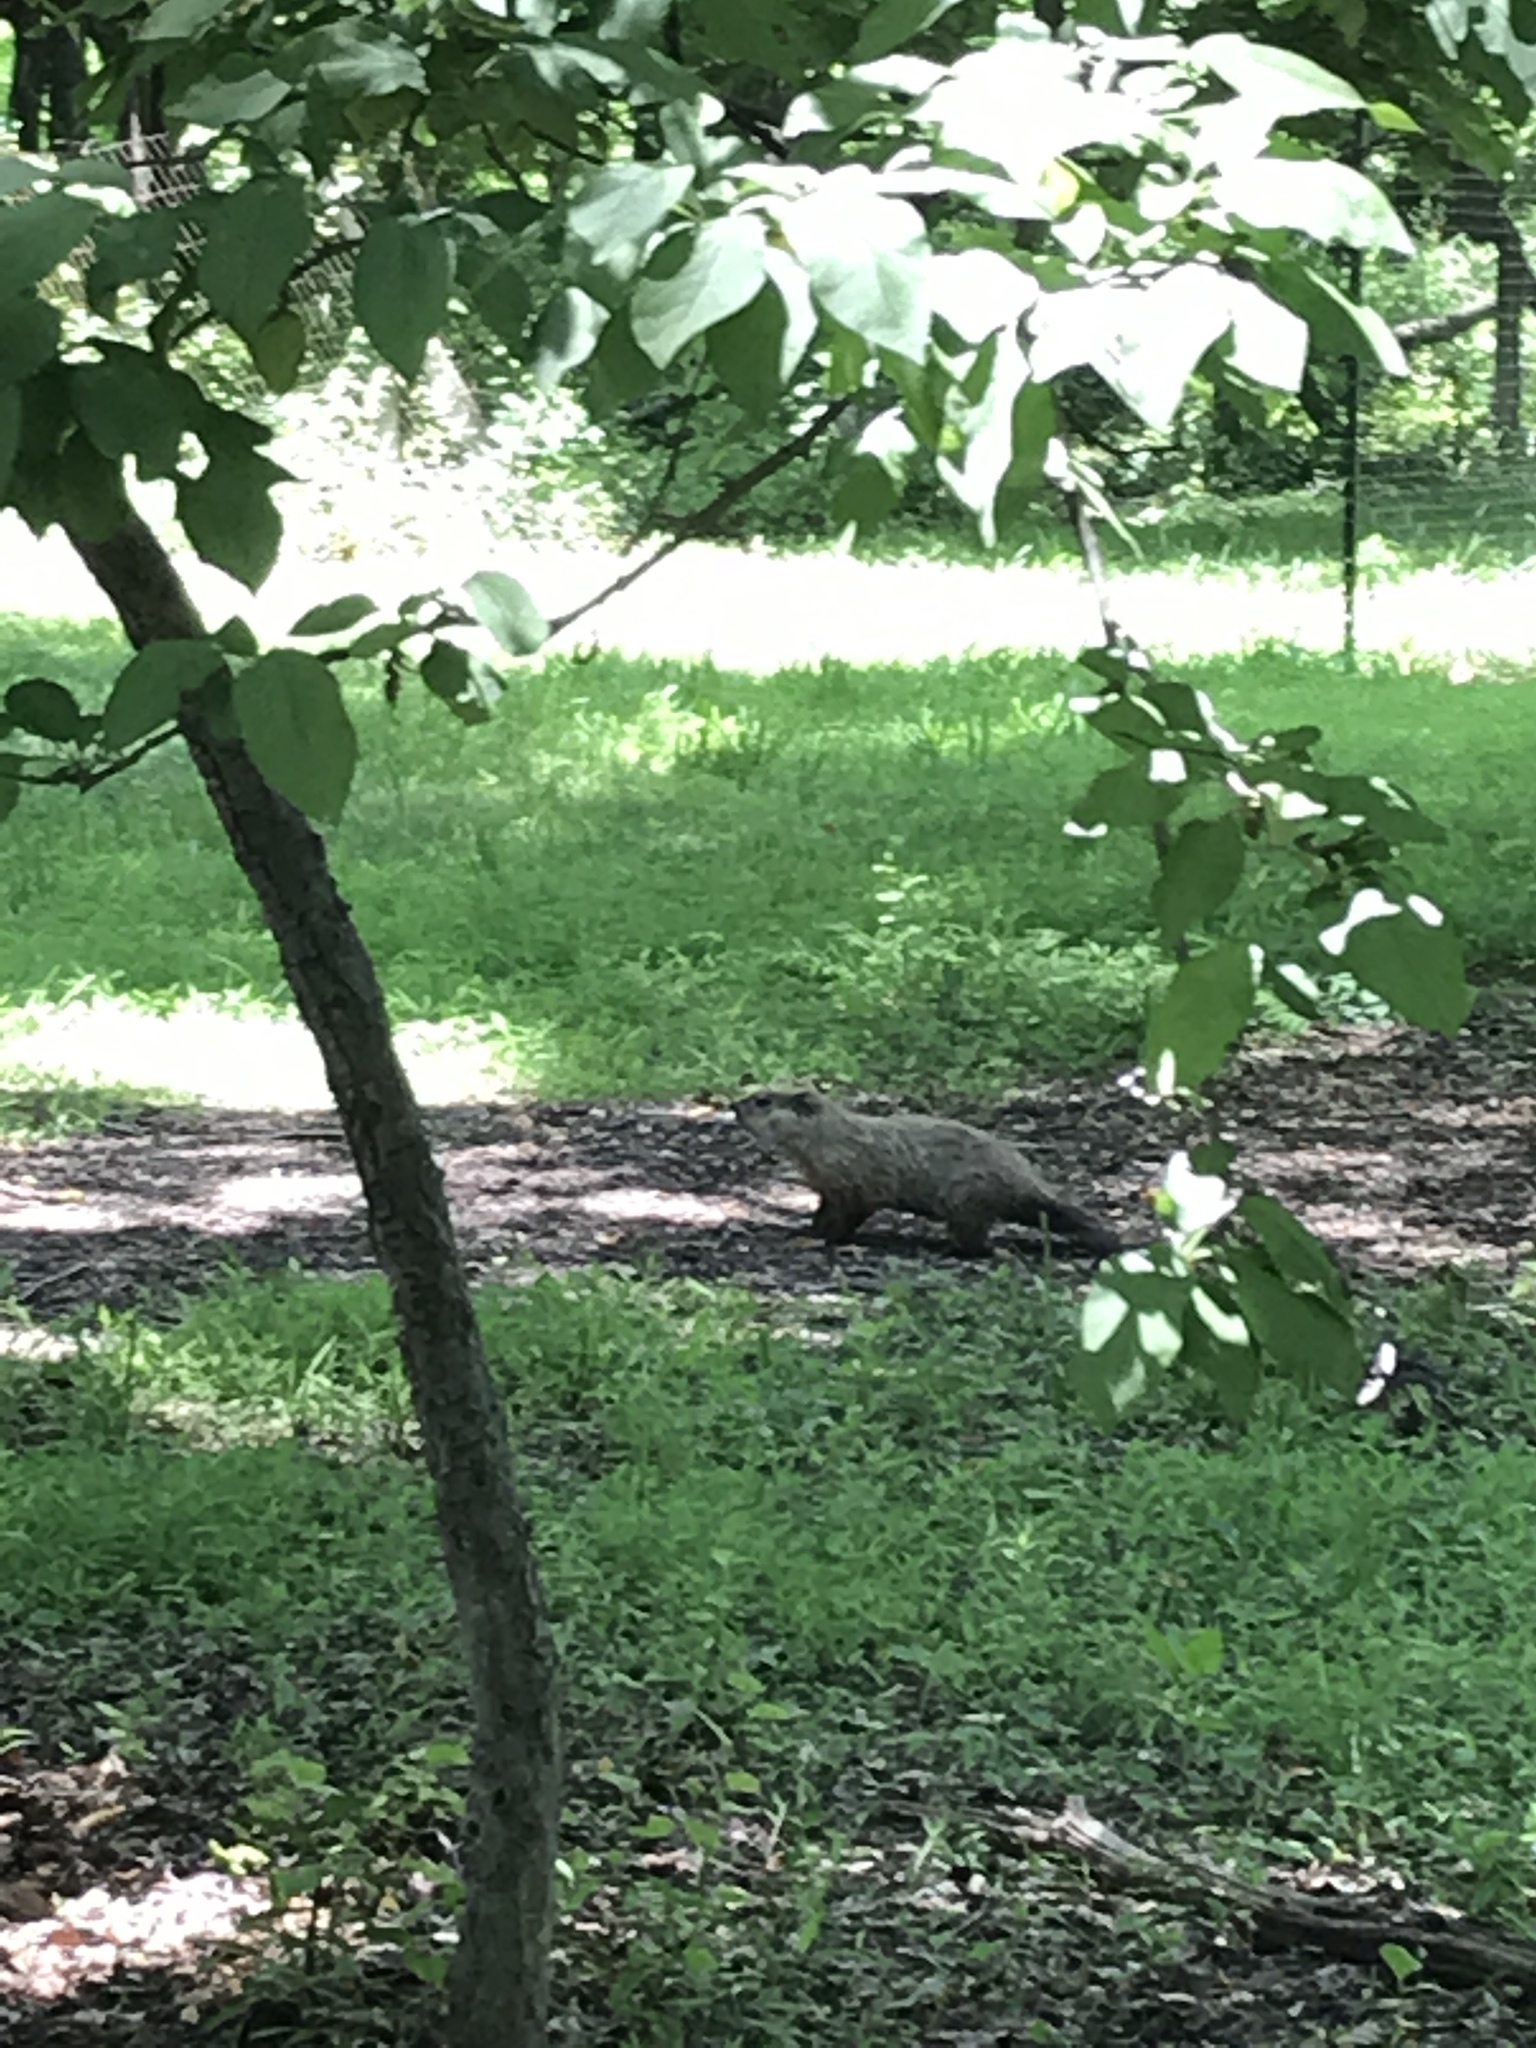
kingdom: Animalia
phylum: Chordata
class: Mammalia
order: Rodentia
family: Sciuridae
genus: Marmota
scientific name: Marmota monax
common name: Groundhog
